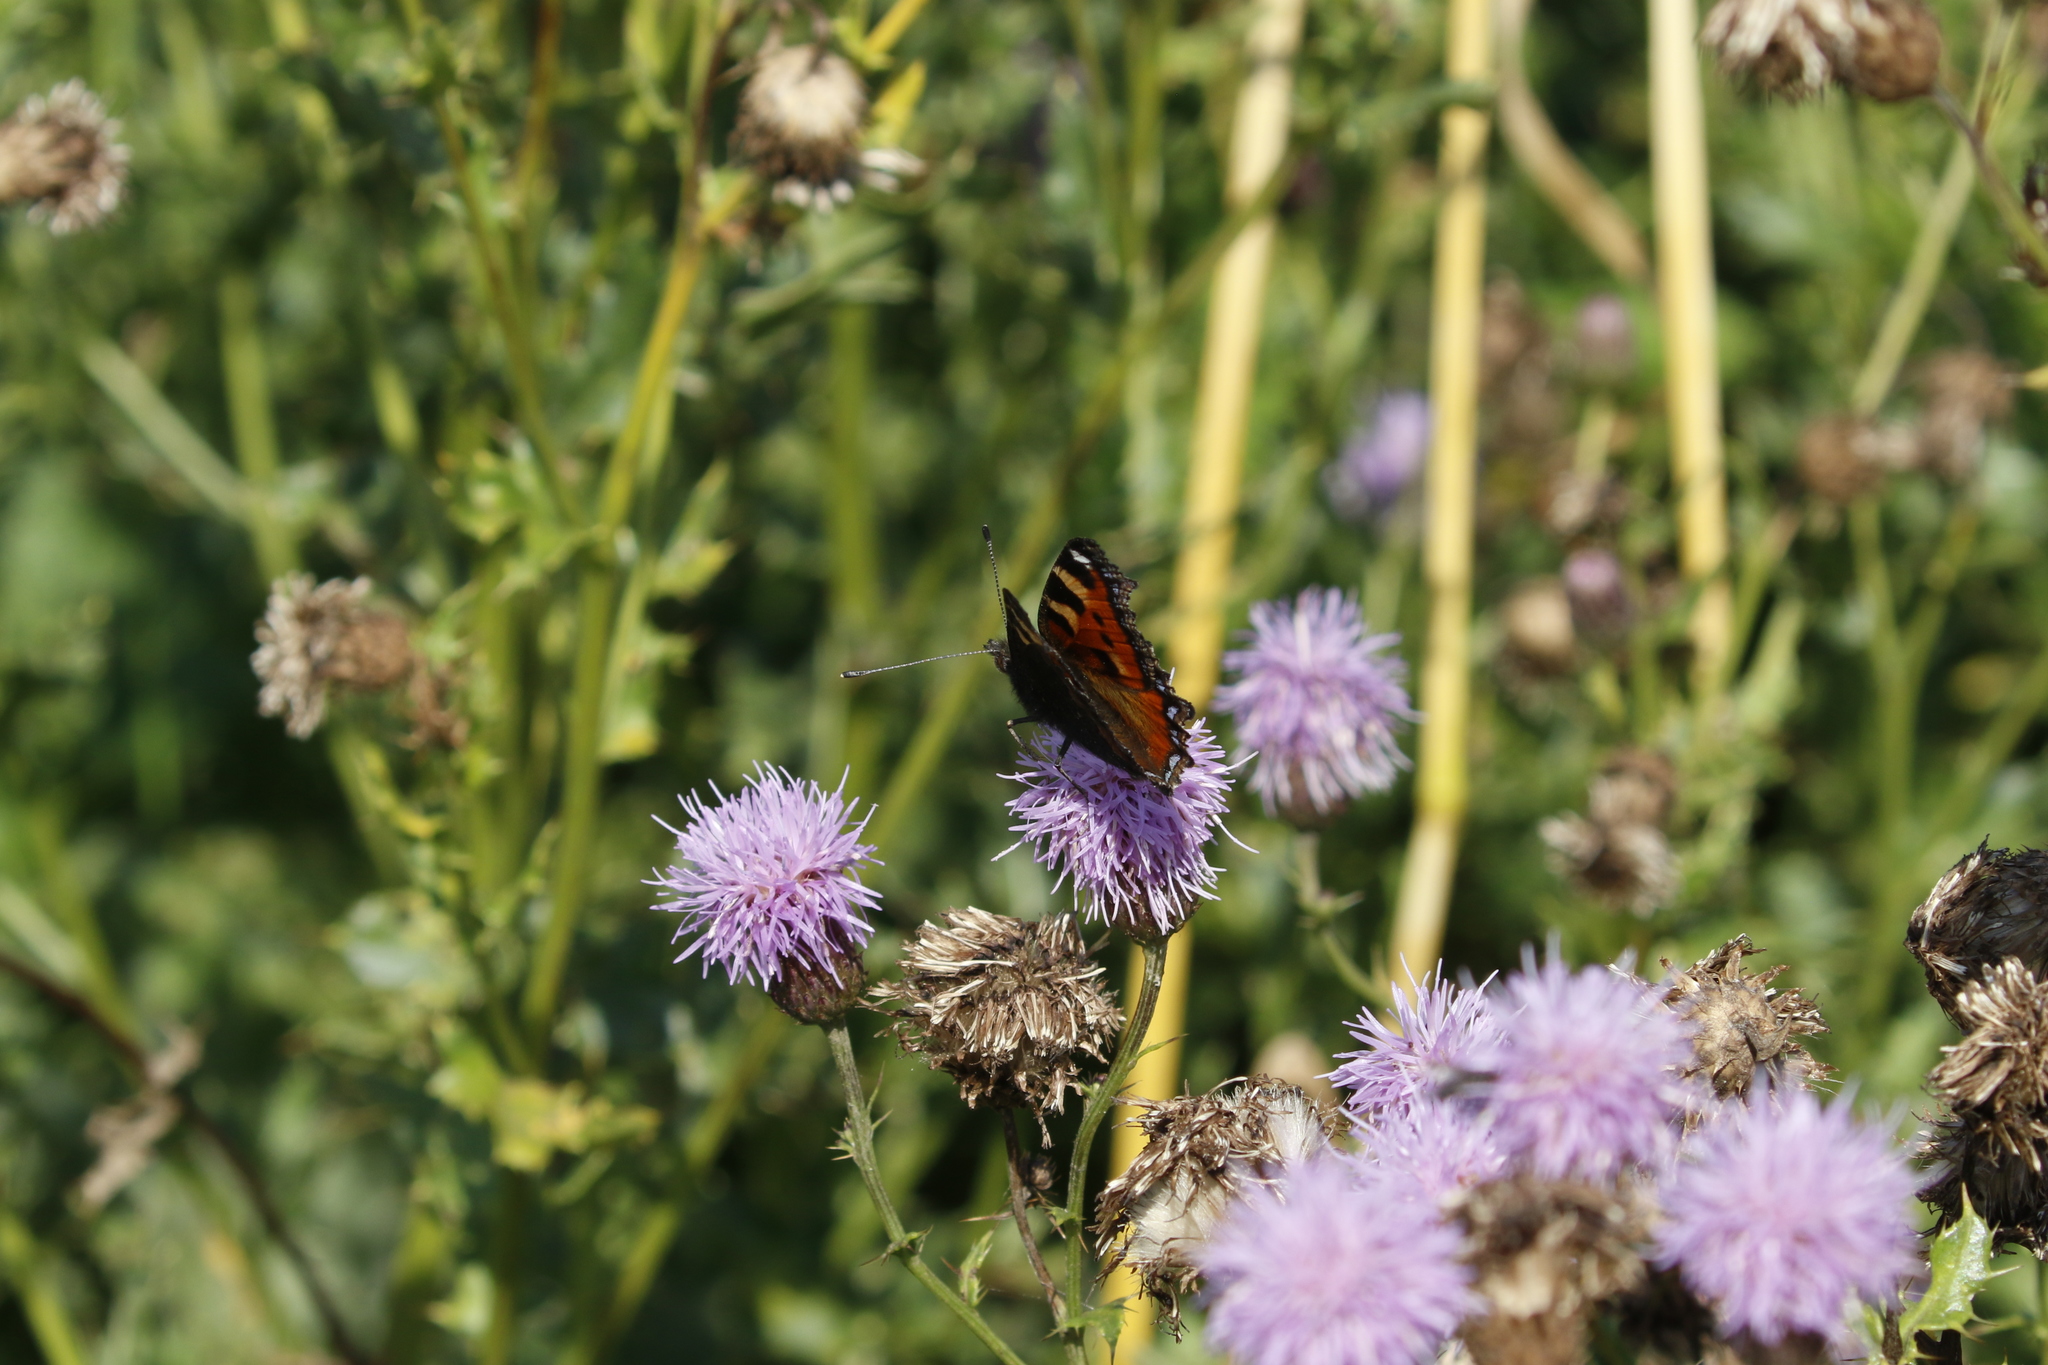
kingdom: Animalia
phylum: Arthropoda
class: Insecta
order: Lepidoptera
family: Nymphalidae
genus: Aglais
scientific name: Aglais urticae
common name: Small tortoiseshell
